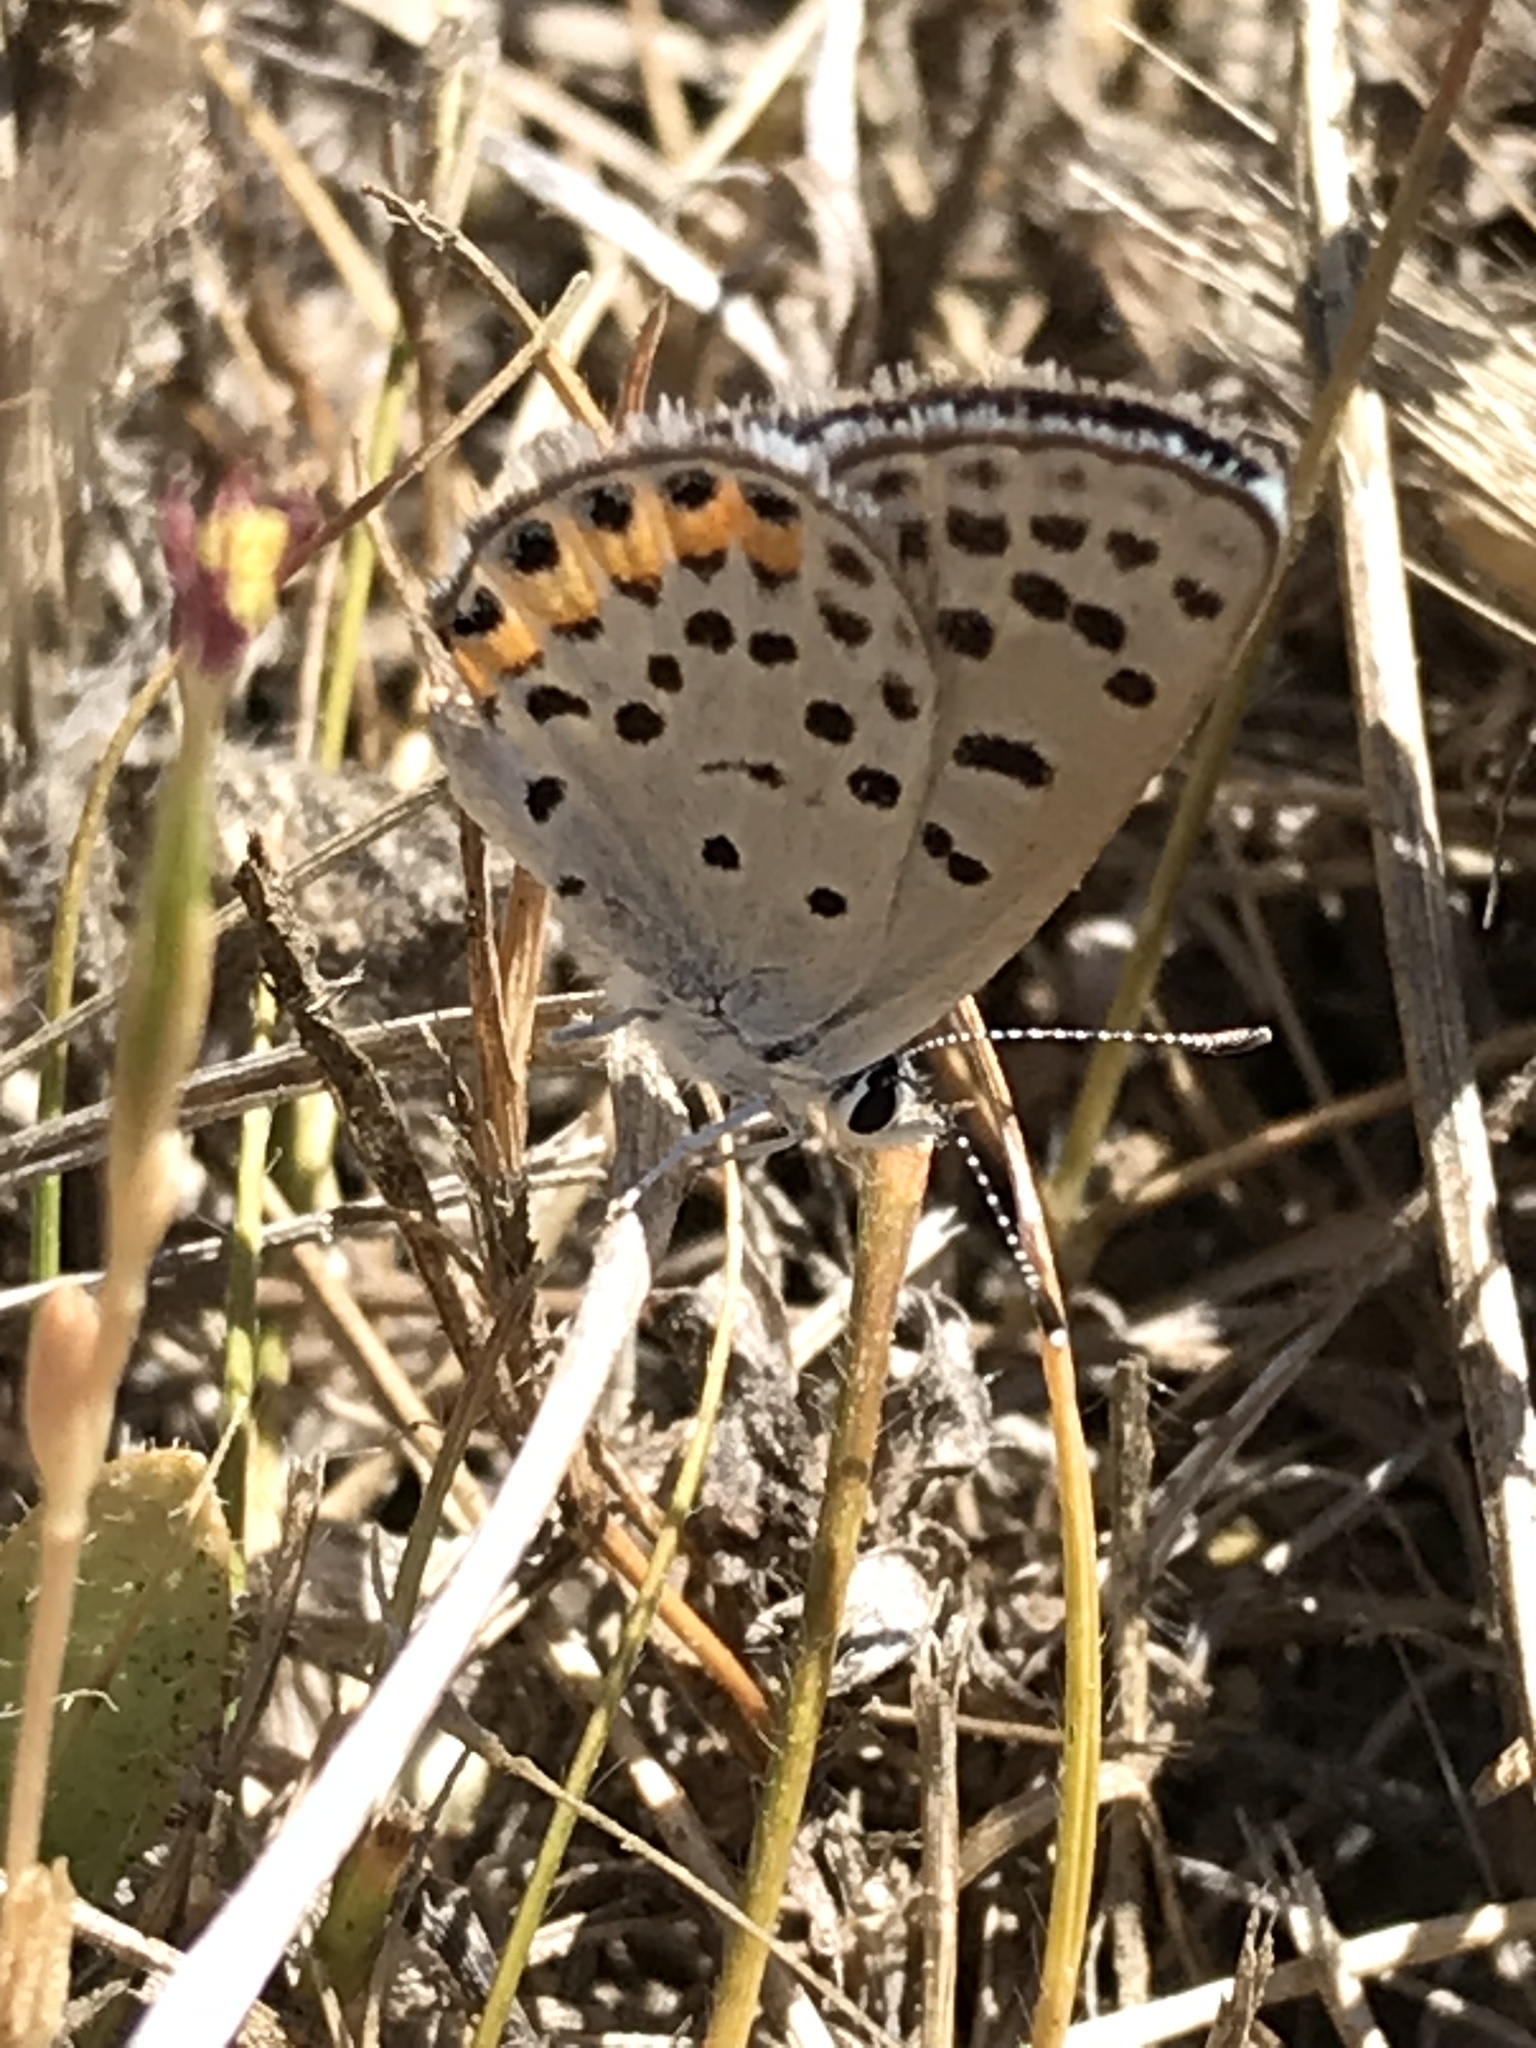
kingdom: Animalia
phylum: Arthropoda
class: Insecta
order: Lepidoptera
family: Lycaenidae
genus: Icaricia
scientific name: Icaricia acmon
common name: Acmon blue
